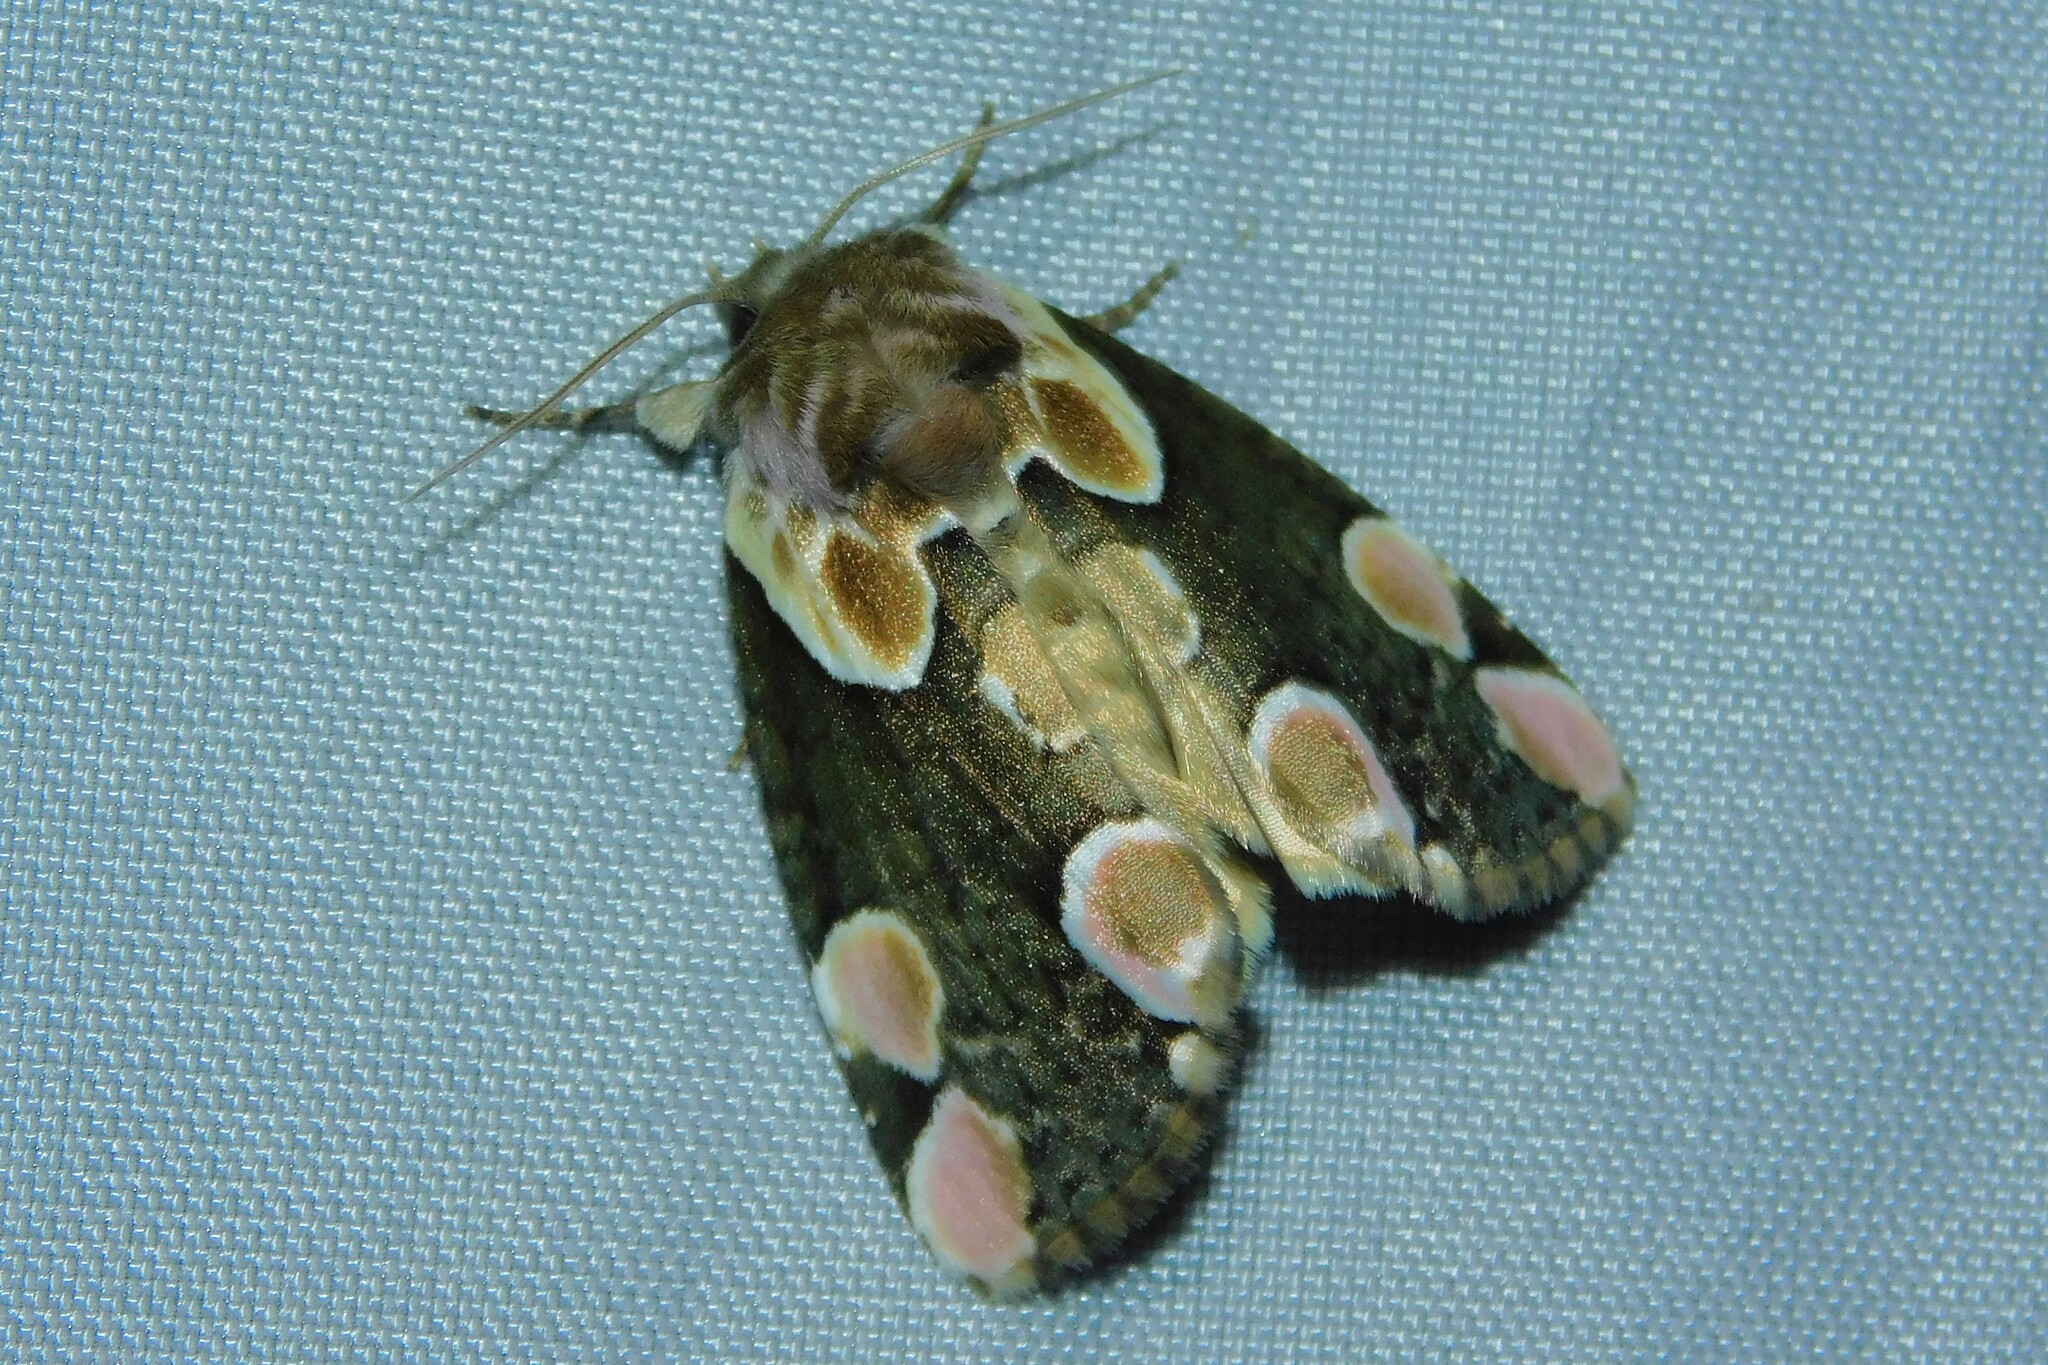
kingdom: Animalia
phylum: Arthropoda
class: Insecta
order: Lepidoptera
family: Drepanidae
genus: Thyatira
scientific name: Thyatira batis
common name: Peach blossom
